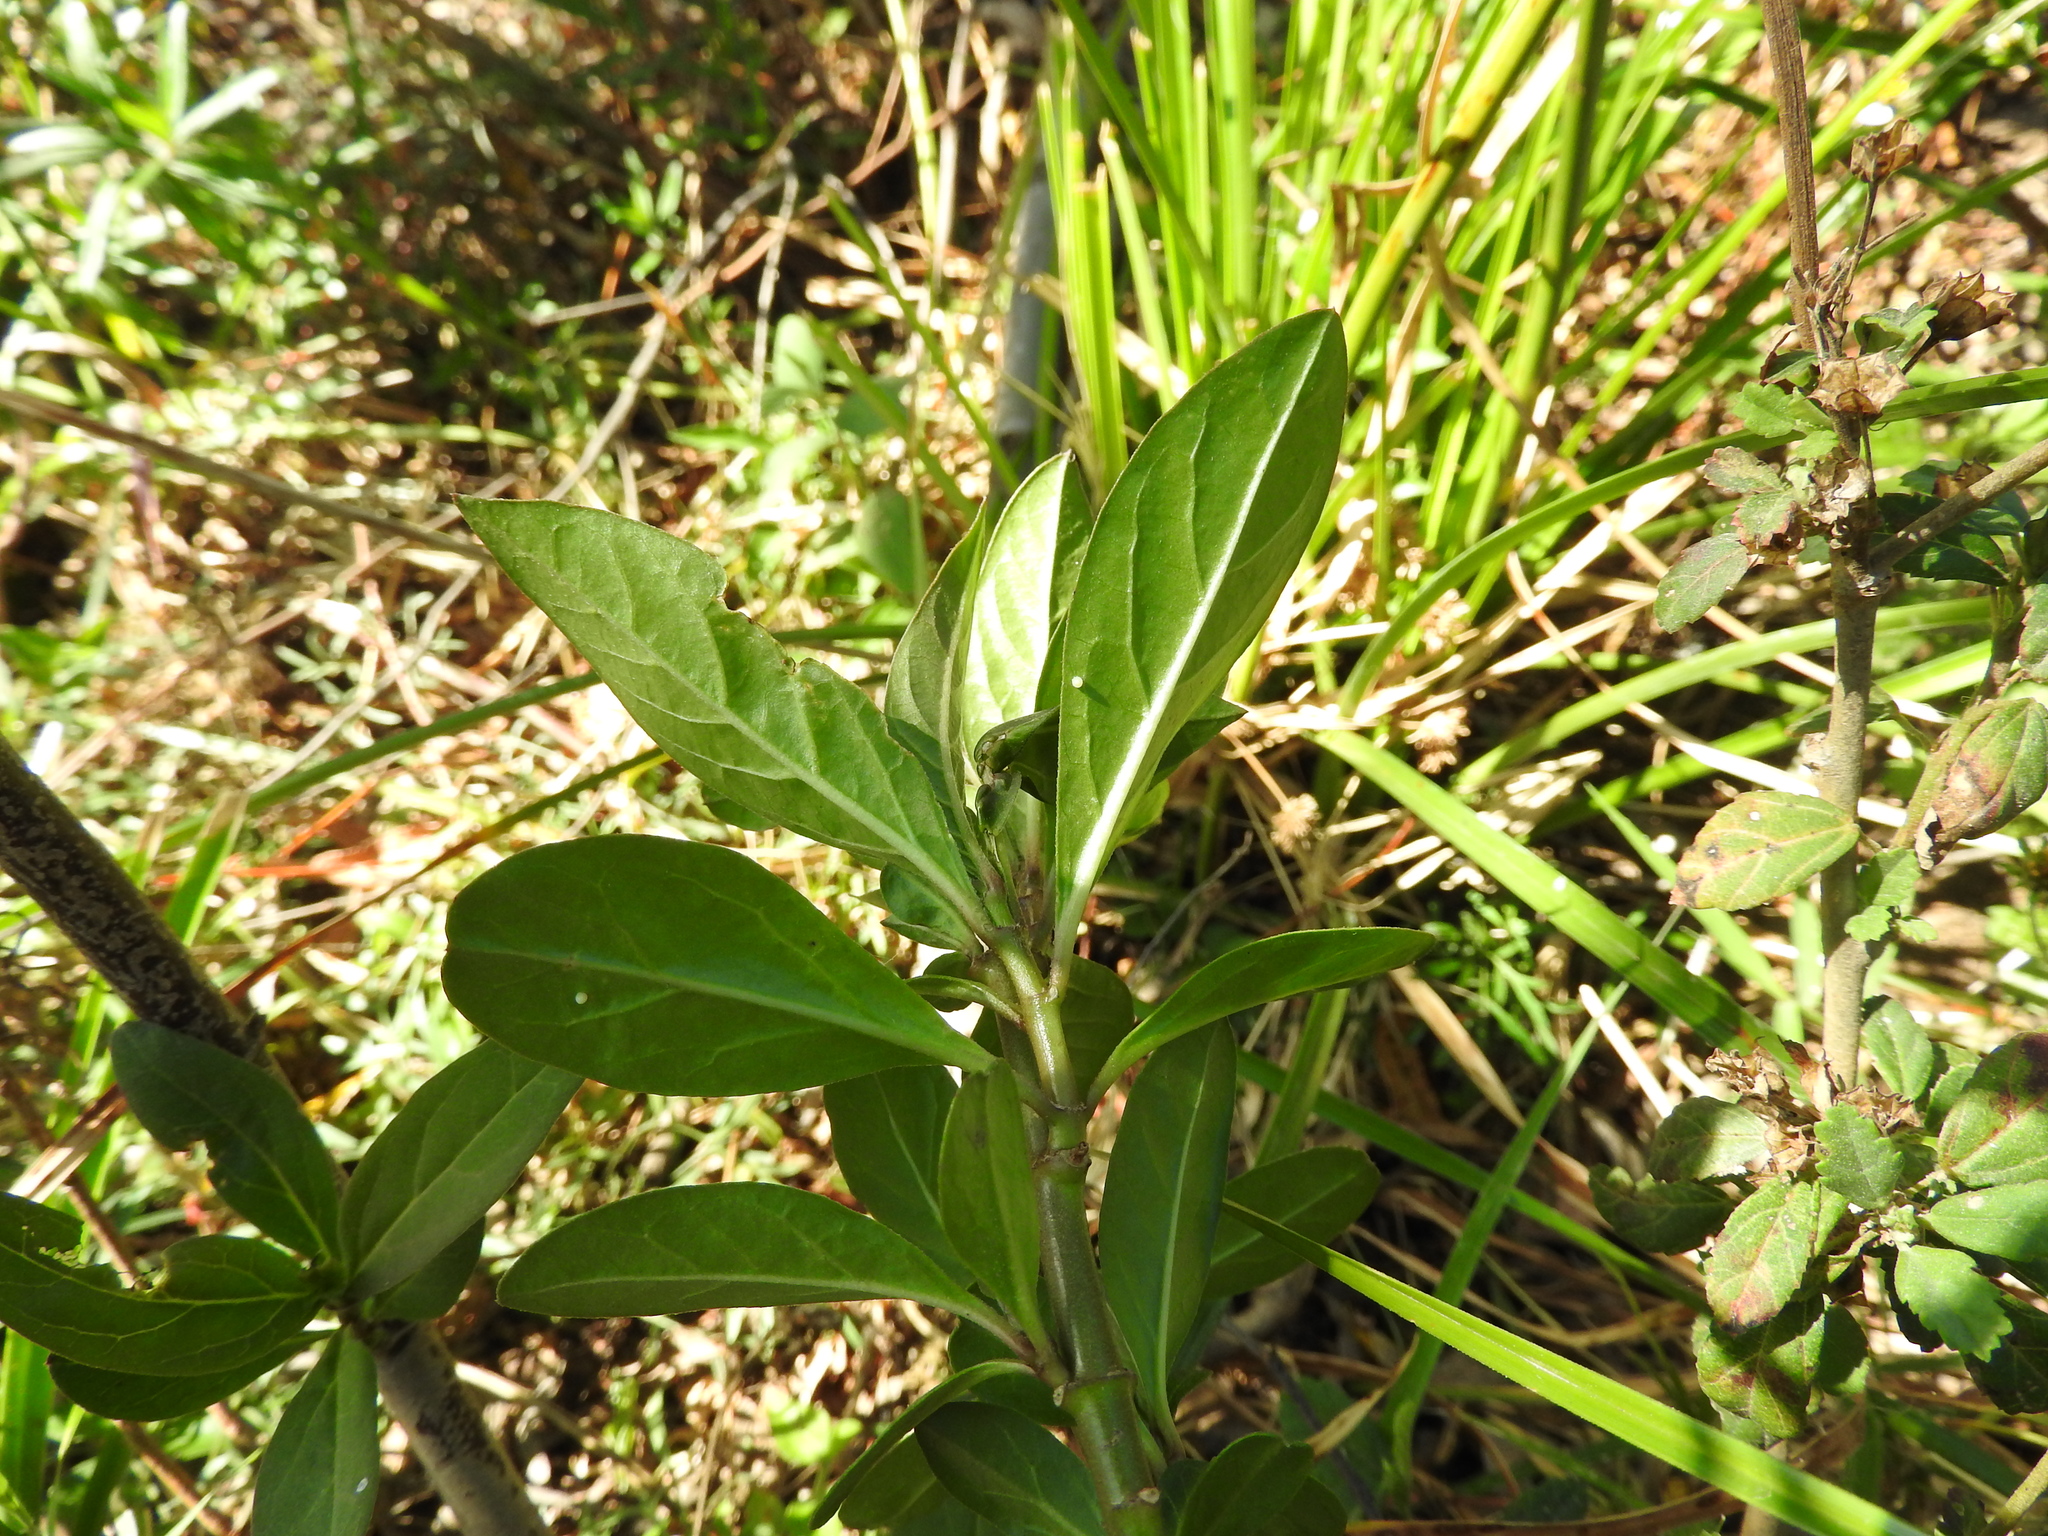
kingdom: Animalia
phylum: Arthropoda
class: Insecta
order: Lepidoptera
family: Nymphalidae
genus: Danaus
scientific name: Danaus plexippus
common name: Monarch
